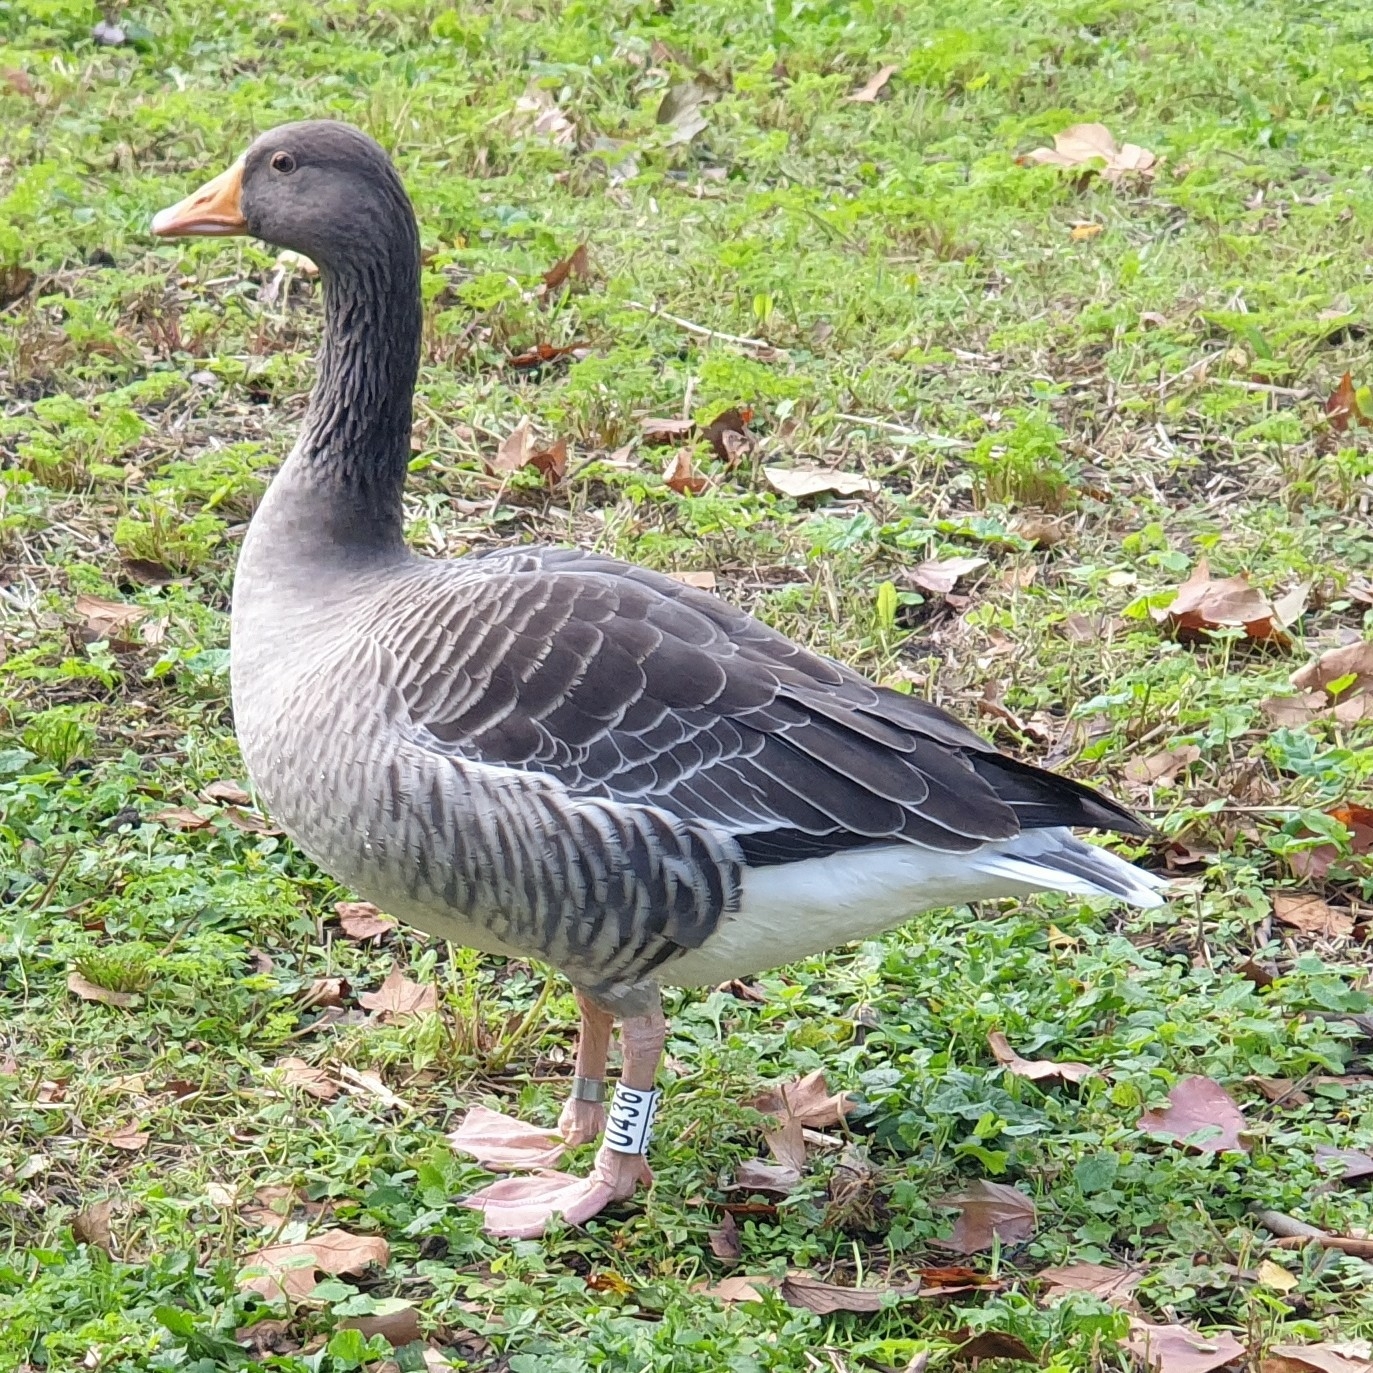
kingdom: Animalia
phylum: Chordata
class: Aves
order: Anseriformes
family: Anatidae
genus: Anser
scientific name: Anser anser
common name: Greylag goose
